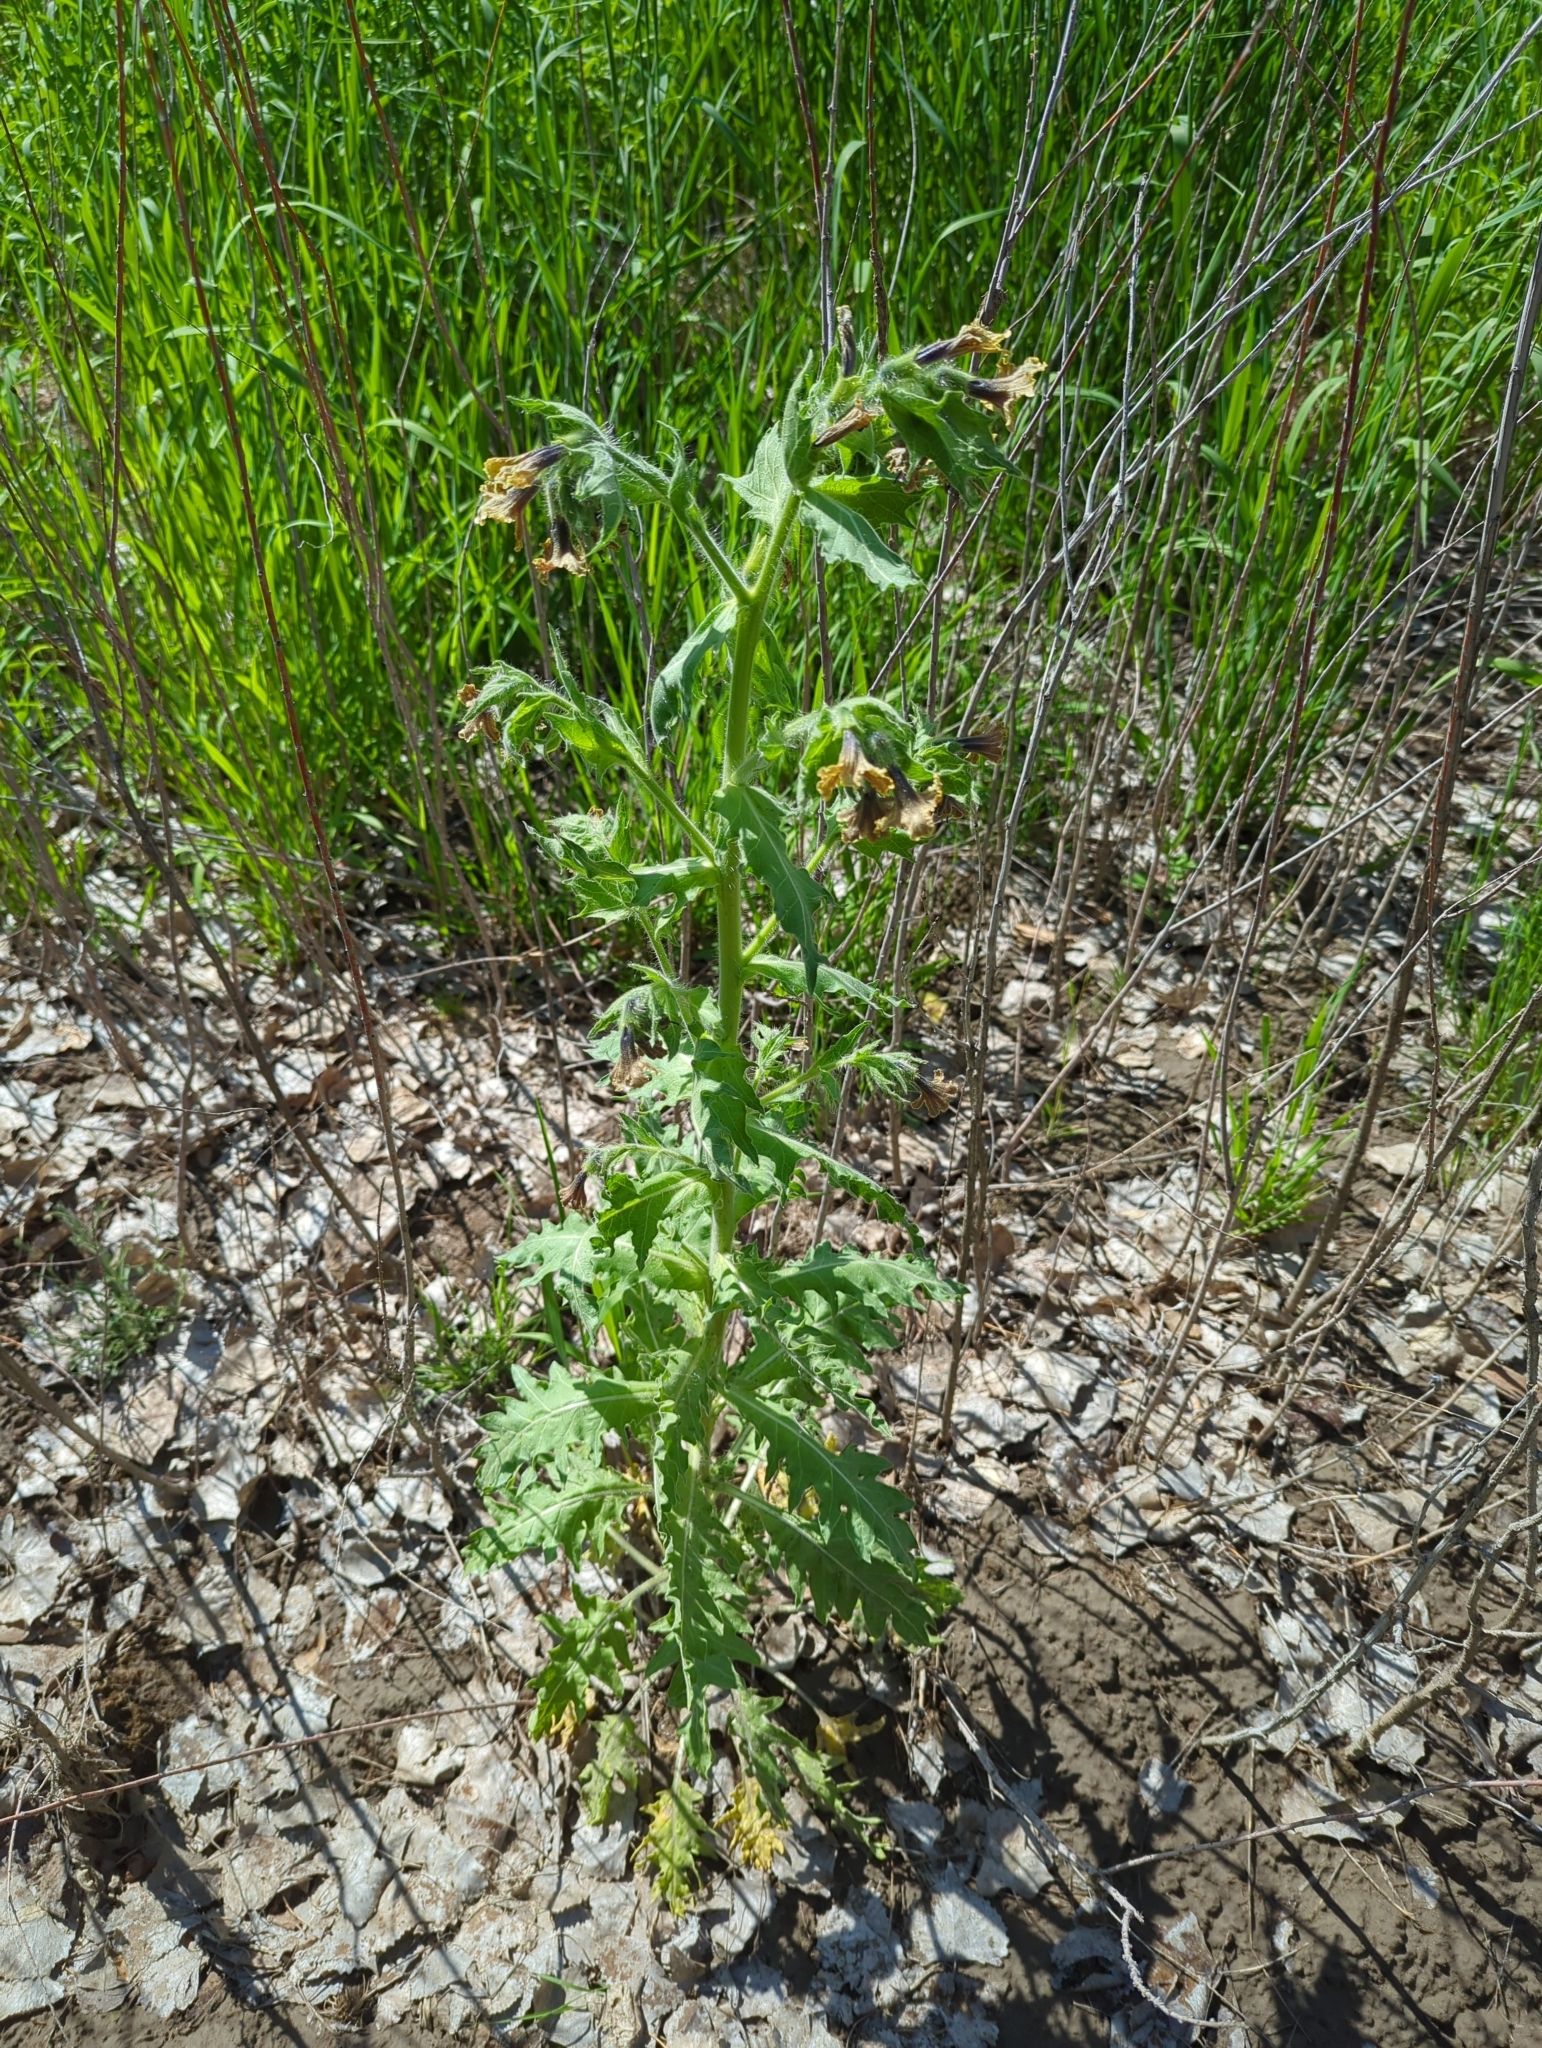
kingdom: Plantae
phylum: Tracheophyta
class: Magnoliopsida
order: Solanales
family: Solanaceae
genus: Hyoscyamus
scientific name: Hyoscyamus niger
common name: Henbane
